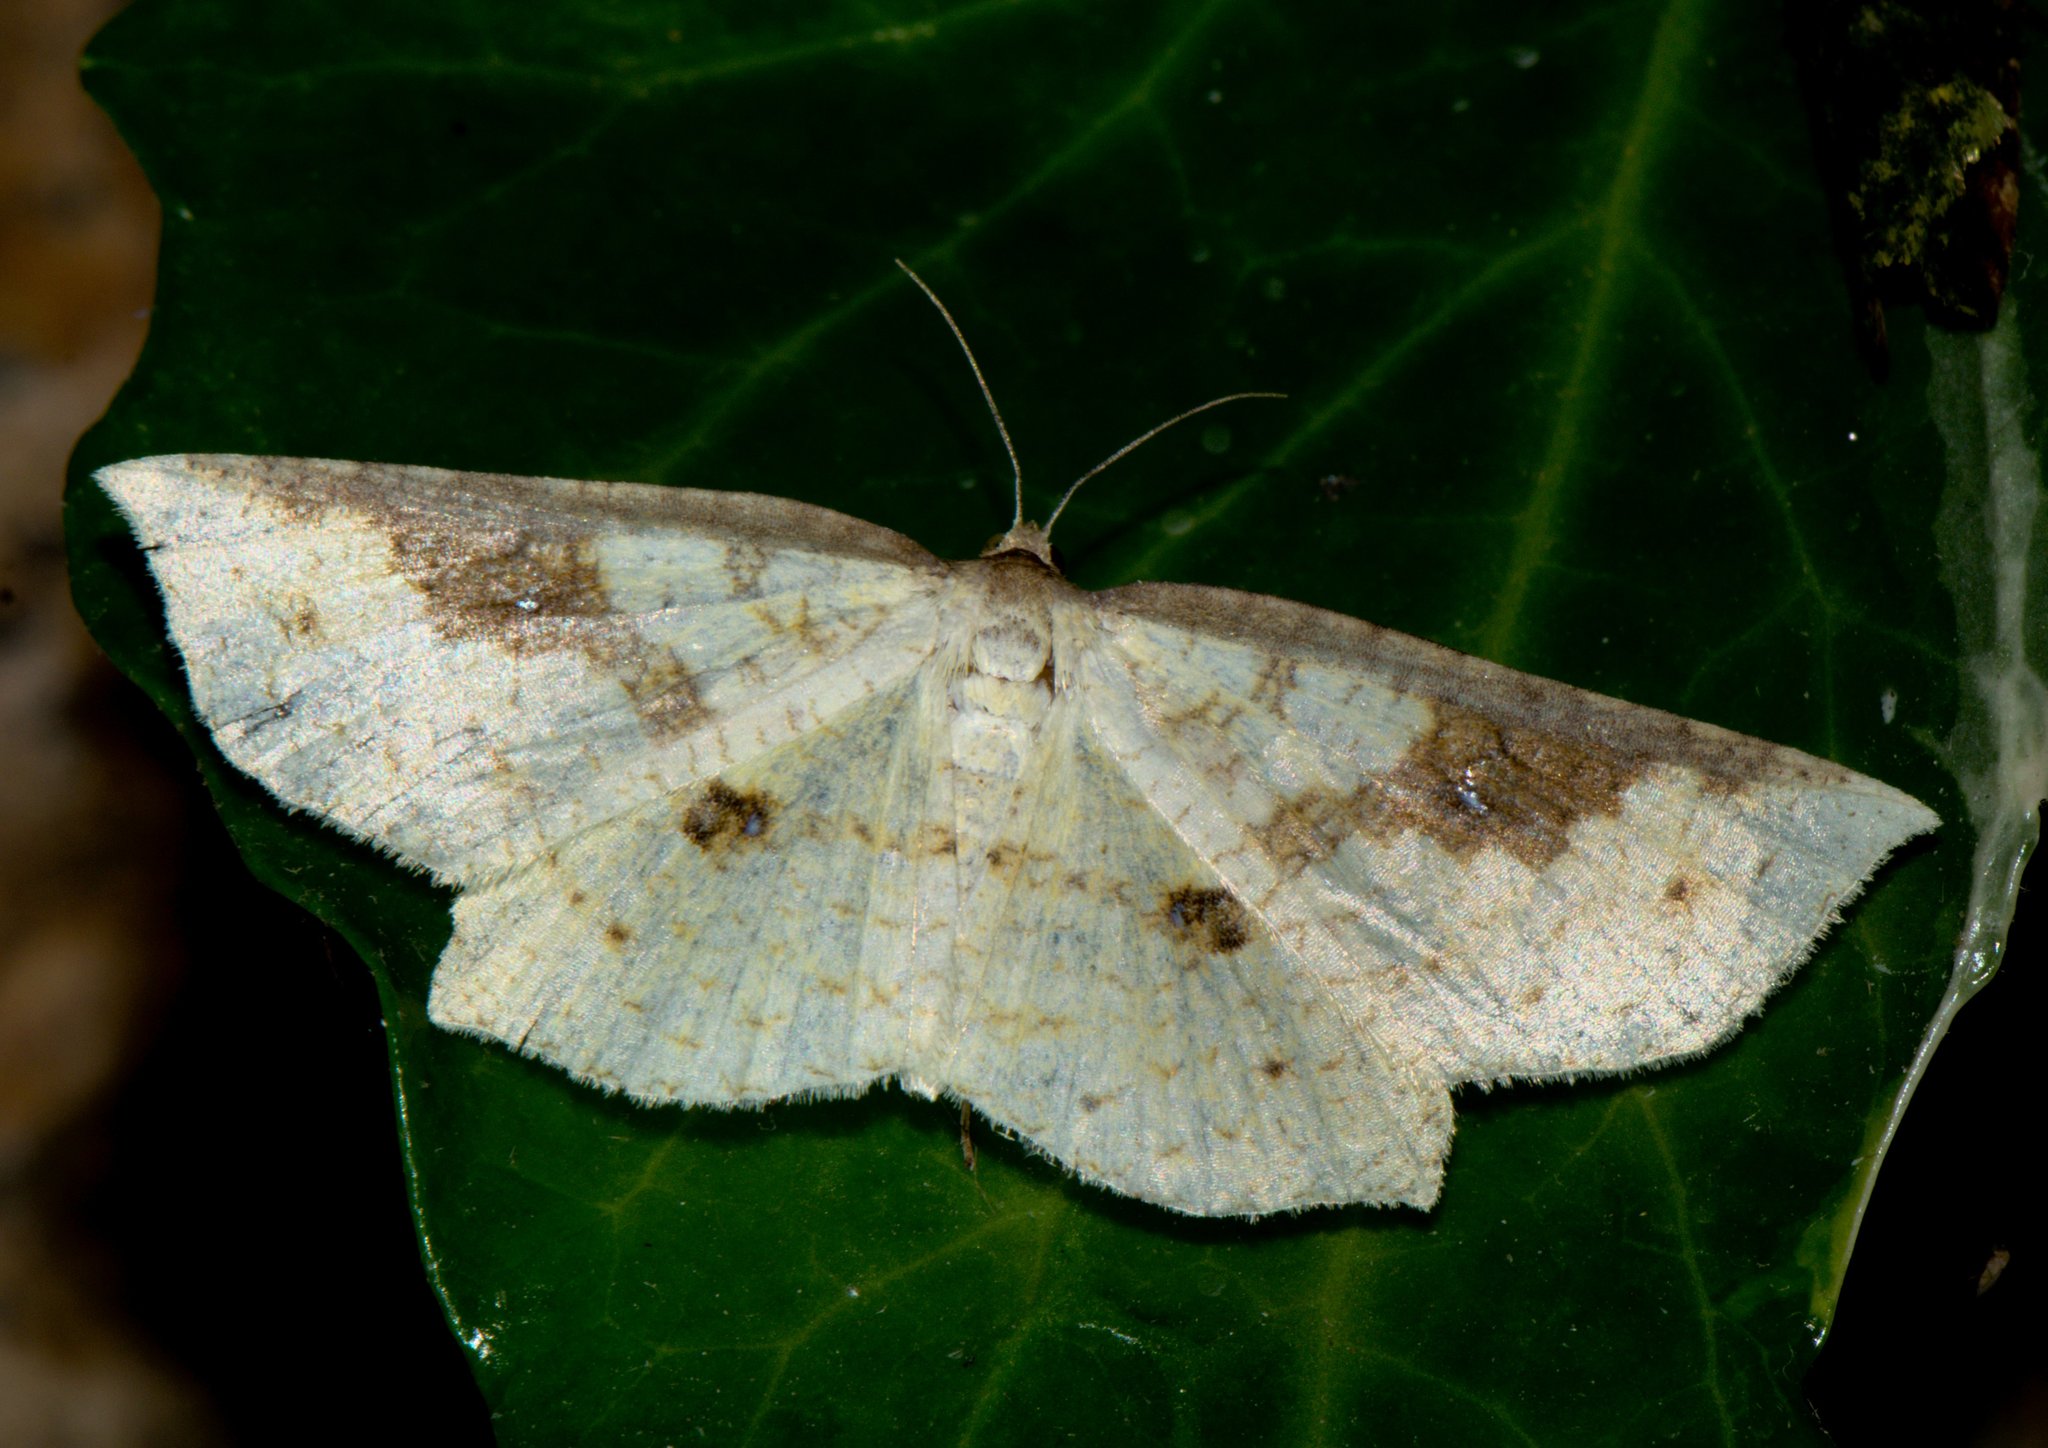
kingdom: Animalia
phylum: Arthropoda
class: Insecta
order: Lepidoptera
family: Thyrididae
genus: Camadena
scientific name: Camadena vespertilionis
